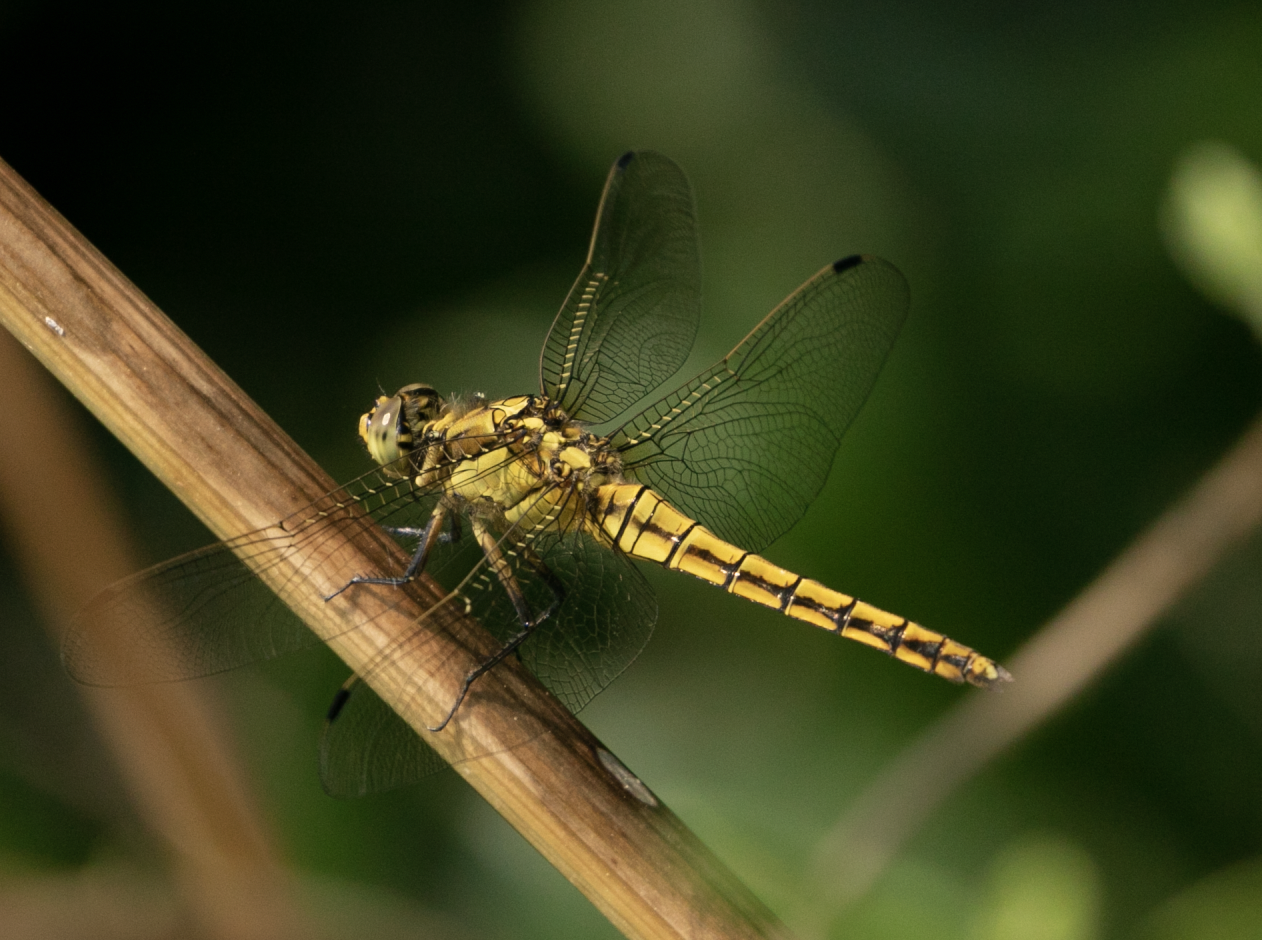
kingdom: Animalia
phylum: Arthropoda
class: Insecta
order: Odonata
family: Libellulidae
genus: Orthetrum
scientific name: Orthetrum cancellatum
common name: Black-tailed skimmer
